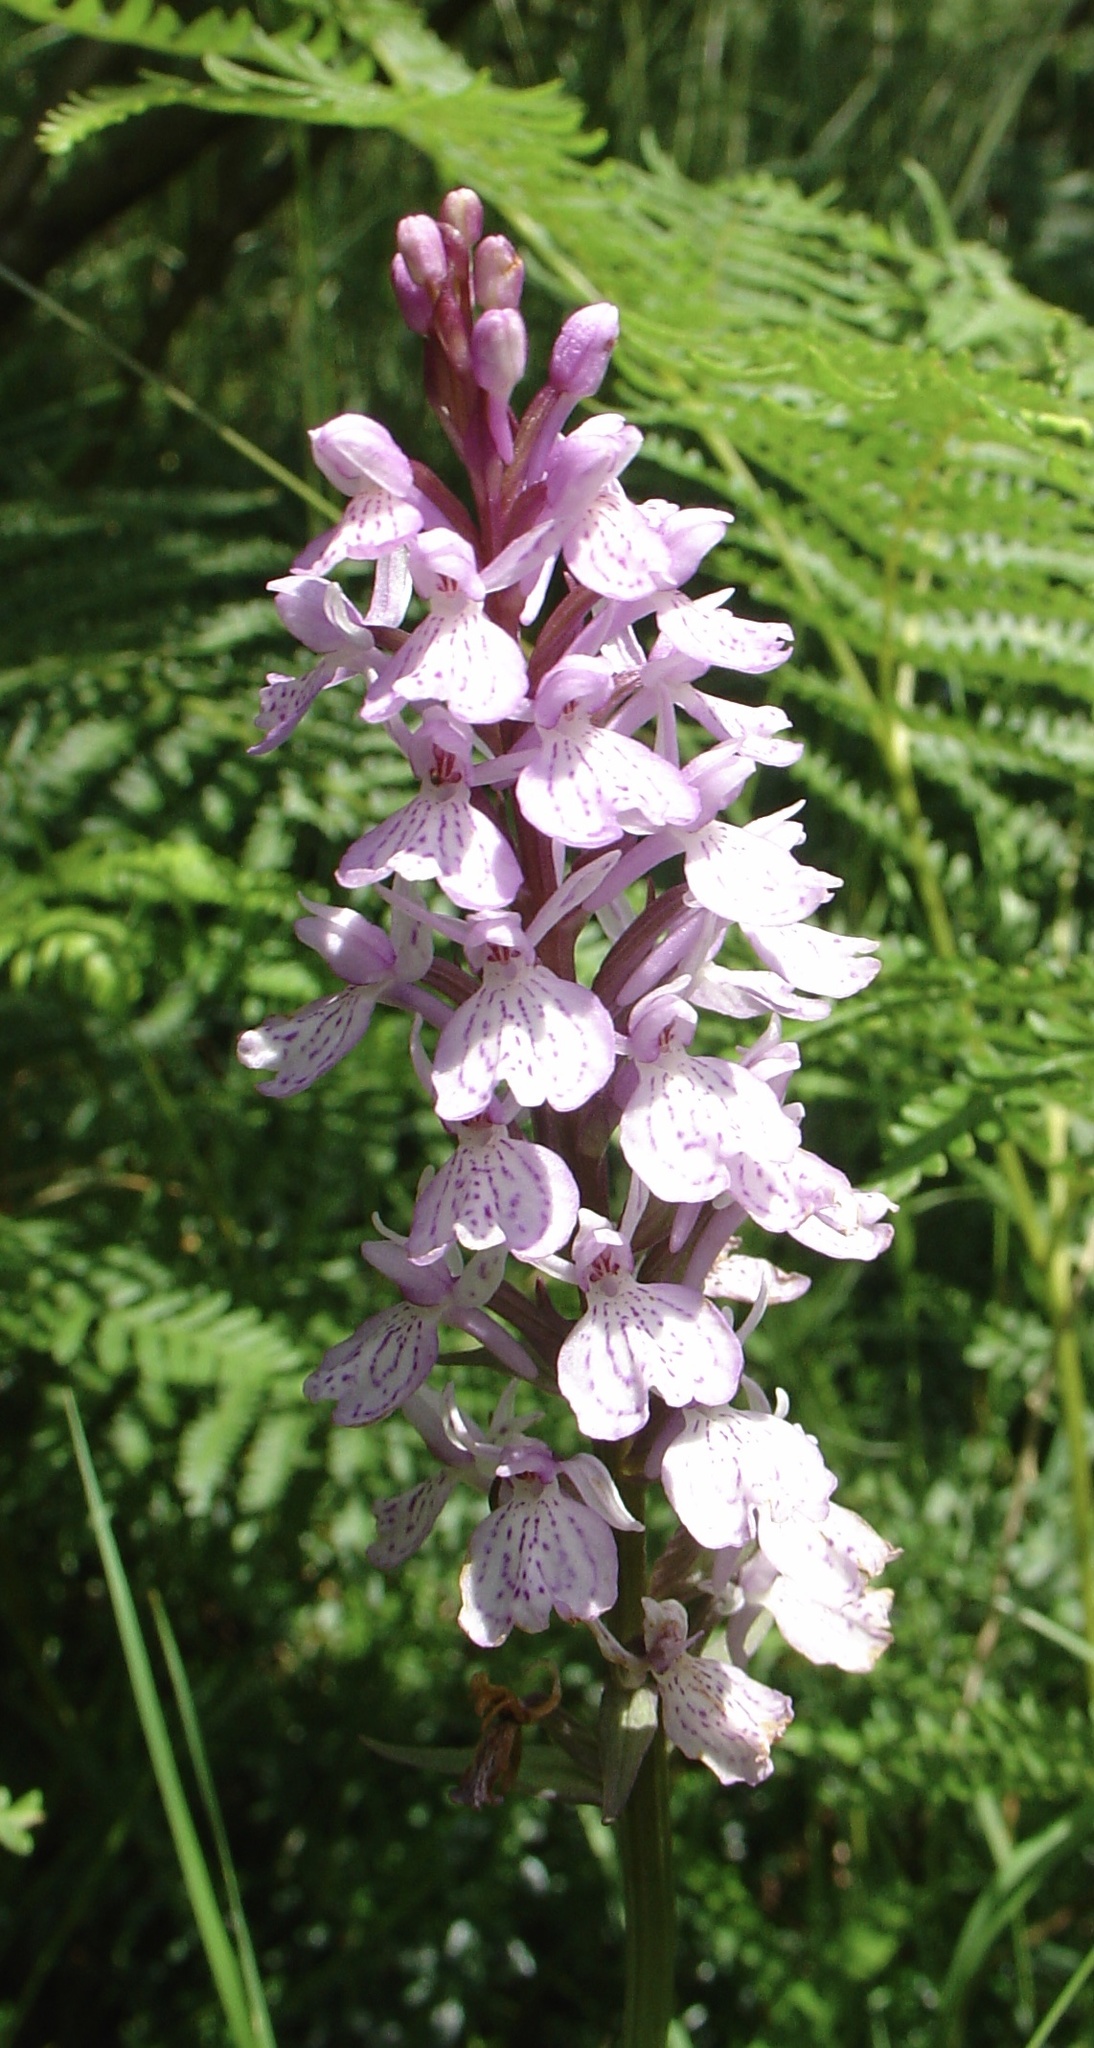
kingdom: Plantae
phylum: Tracheophyta
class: Liliopsida
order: Asparagales
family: Orchidaceae
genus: Dactylorhiza
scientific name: Dactylorhiza maculata
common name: Heath spotted-orchid
